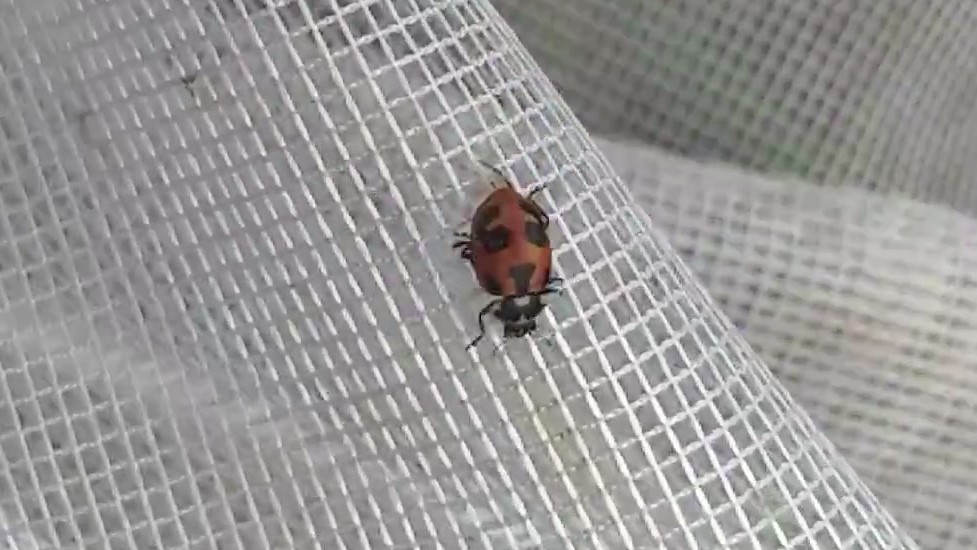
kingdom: Animalia
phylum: Arthropoda
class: Insecta
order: Coleoptera
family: Coccinellidae
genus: Hippodamia
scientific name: Hippodamia parenthesis
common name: Parenthesis lady beetle
